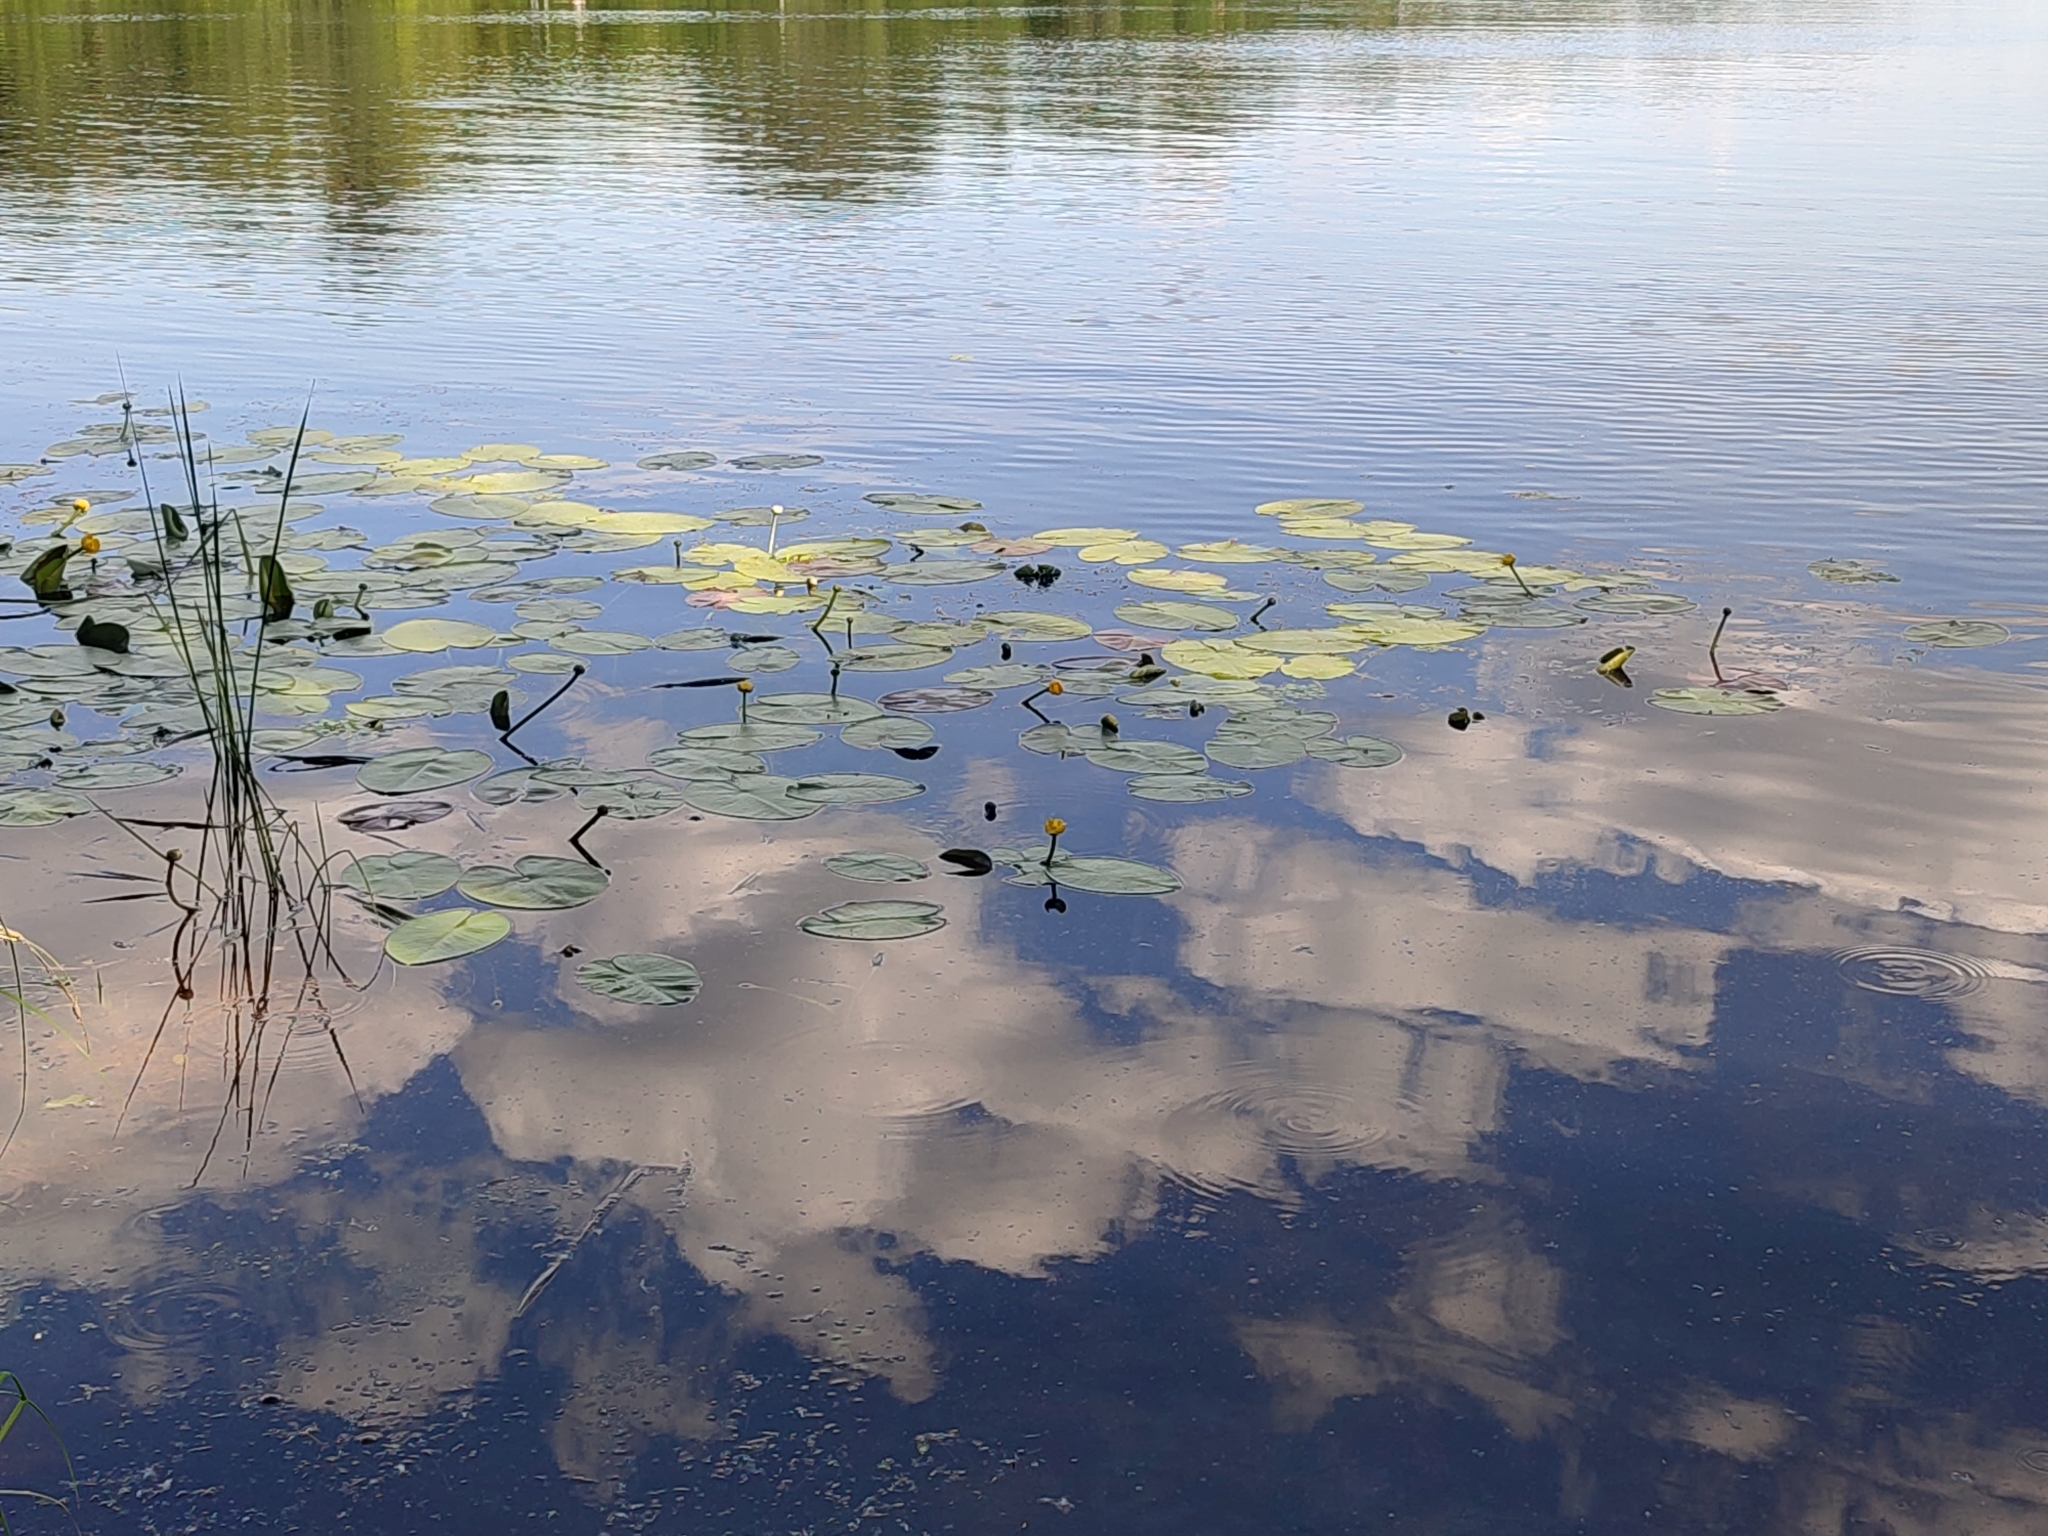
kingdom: Plantae
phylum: Tracheophyta
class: Magnoliopsida
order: Nymphaeales
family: Nymphaeaceae
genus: Nuphar
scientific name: Nuphar lutea
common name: Yellow water-lily
